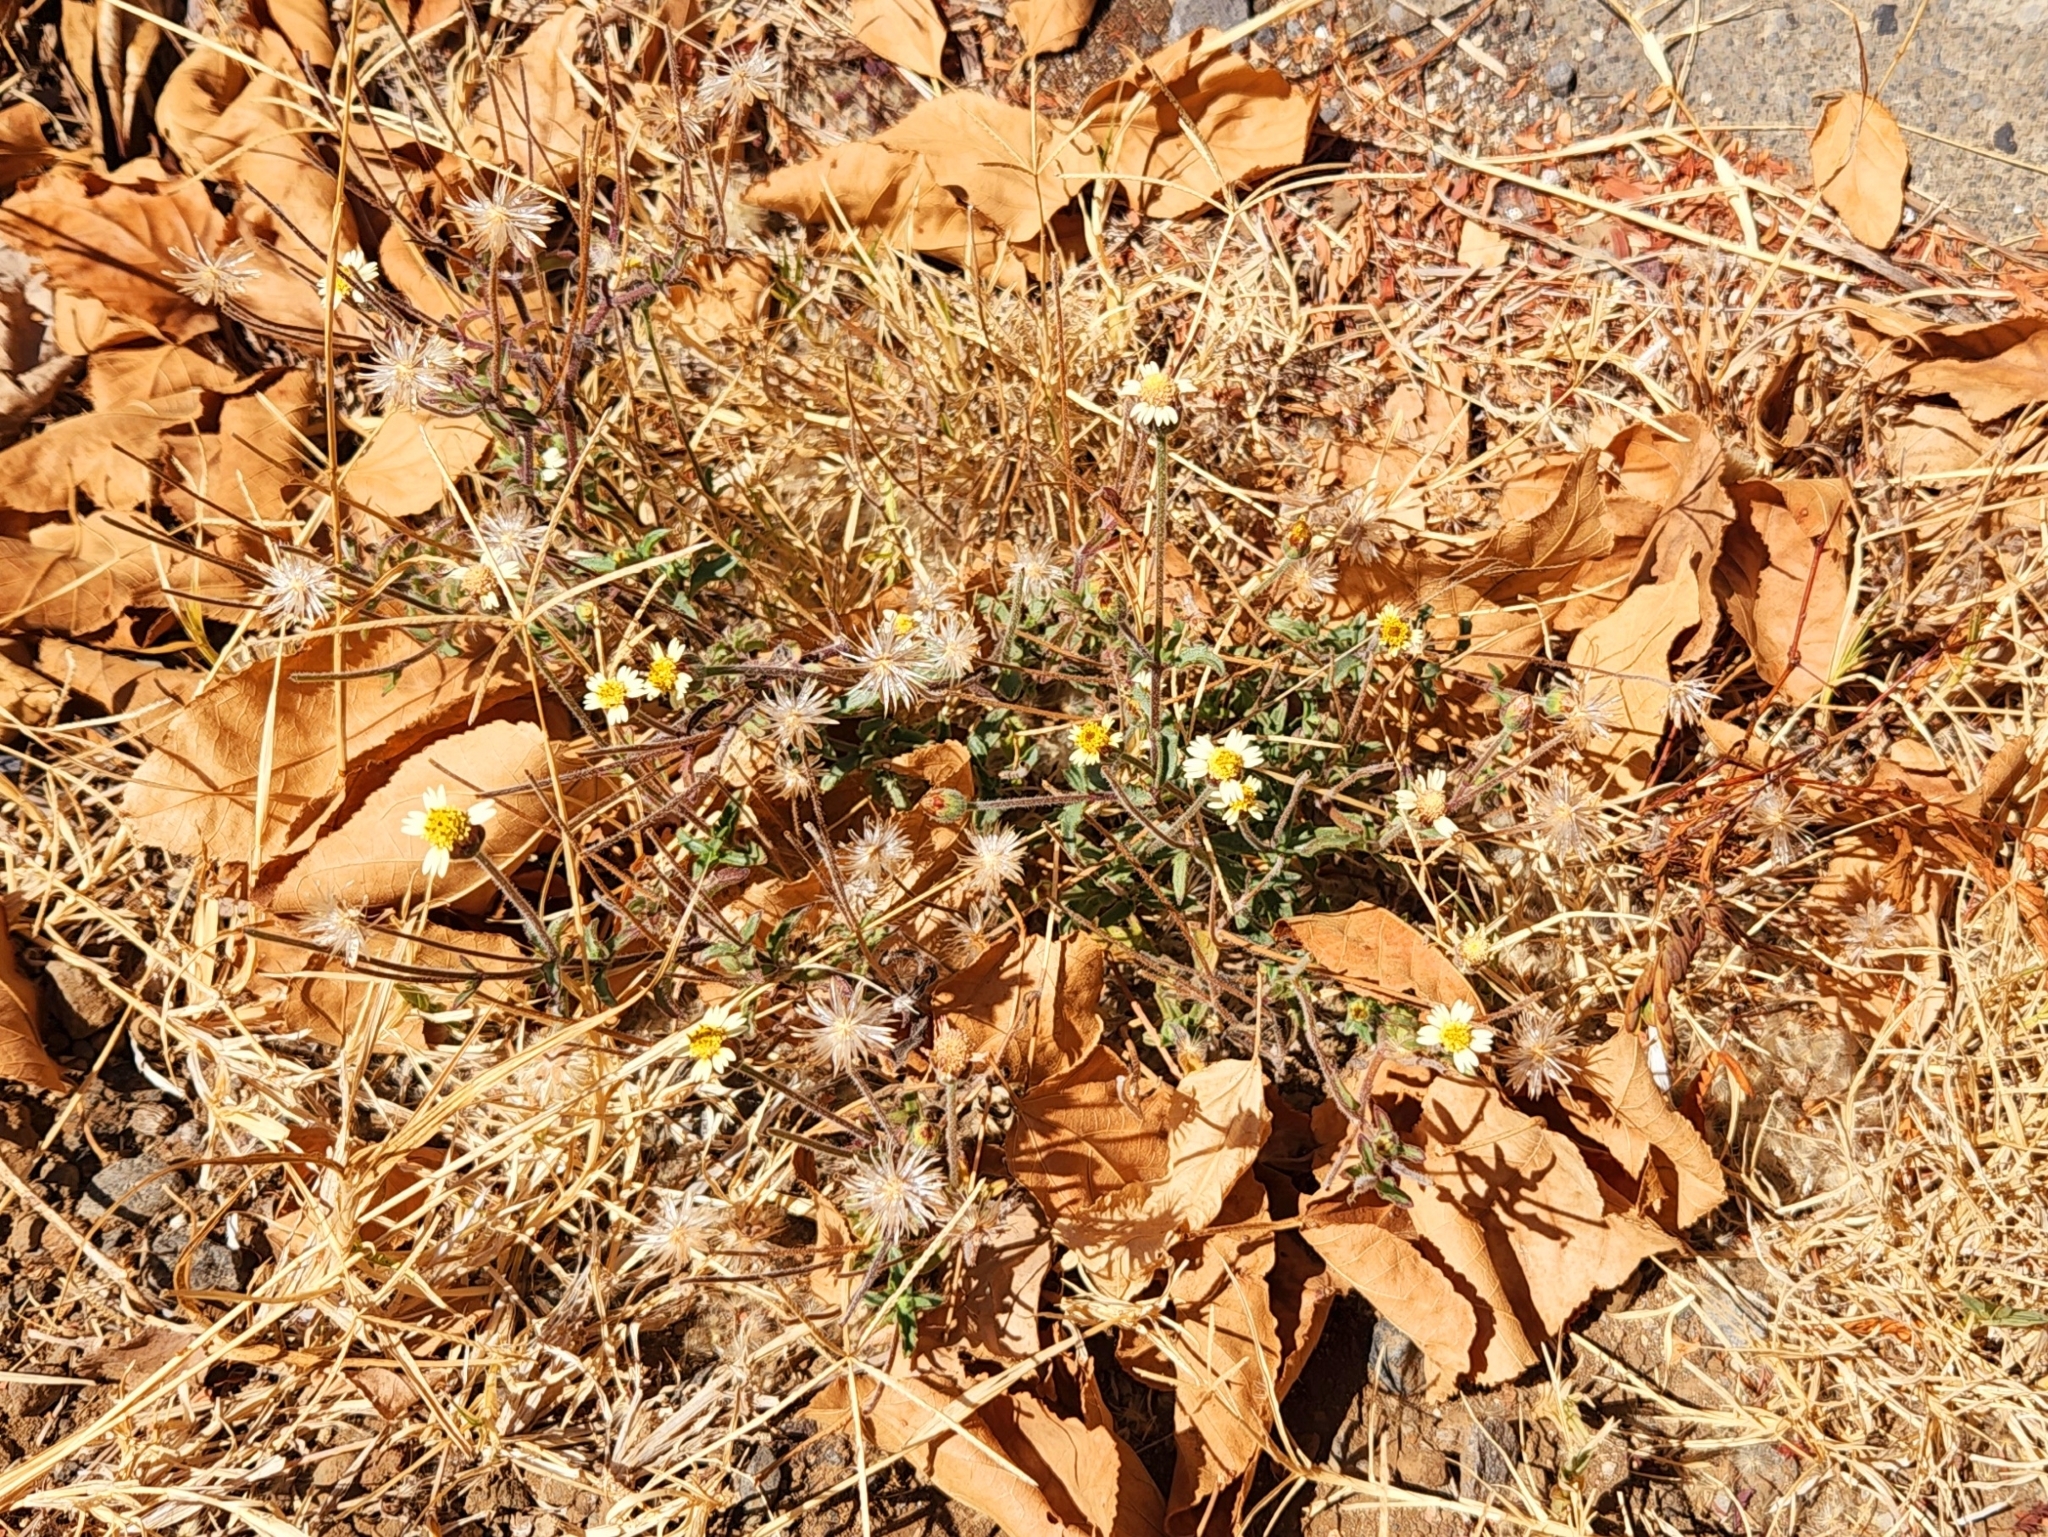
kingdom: Plantae
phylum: Tracheophyta
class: Magnoliopsida
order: Asterales
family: Asteraceae
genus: Tridax
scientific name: Tridax procumbens
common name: Coatbuttons
